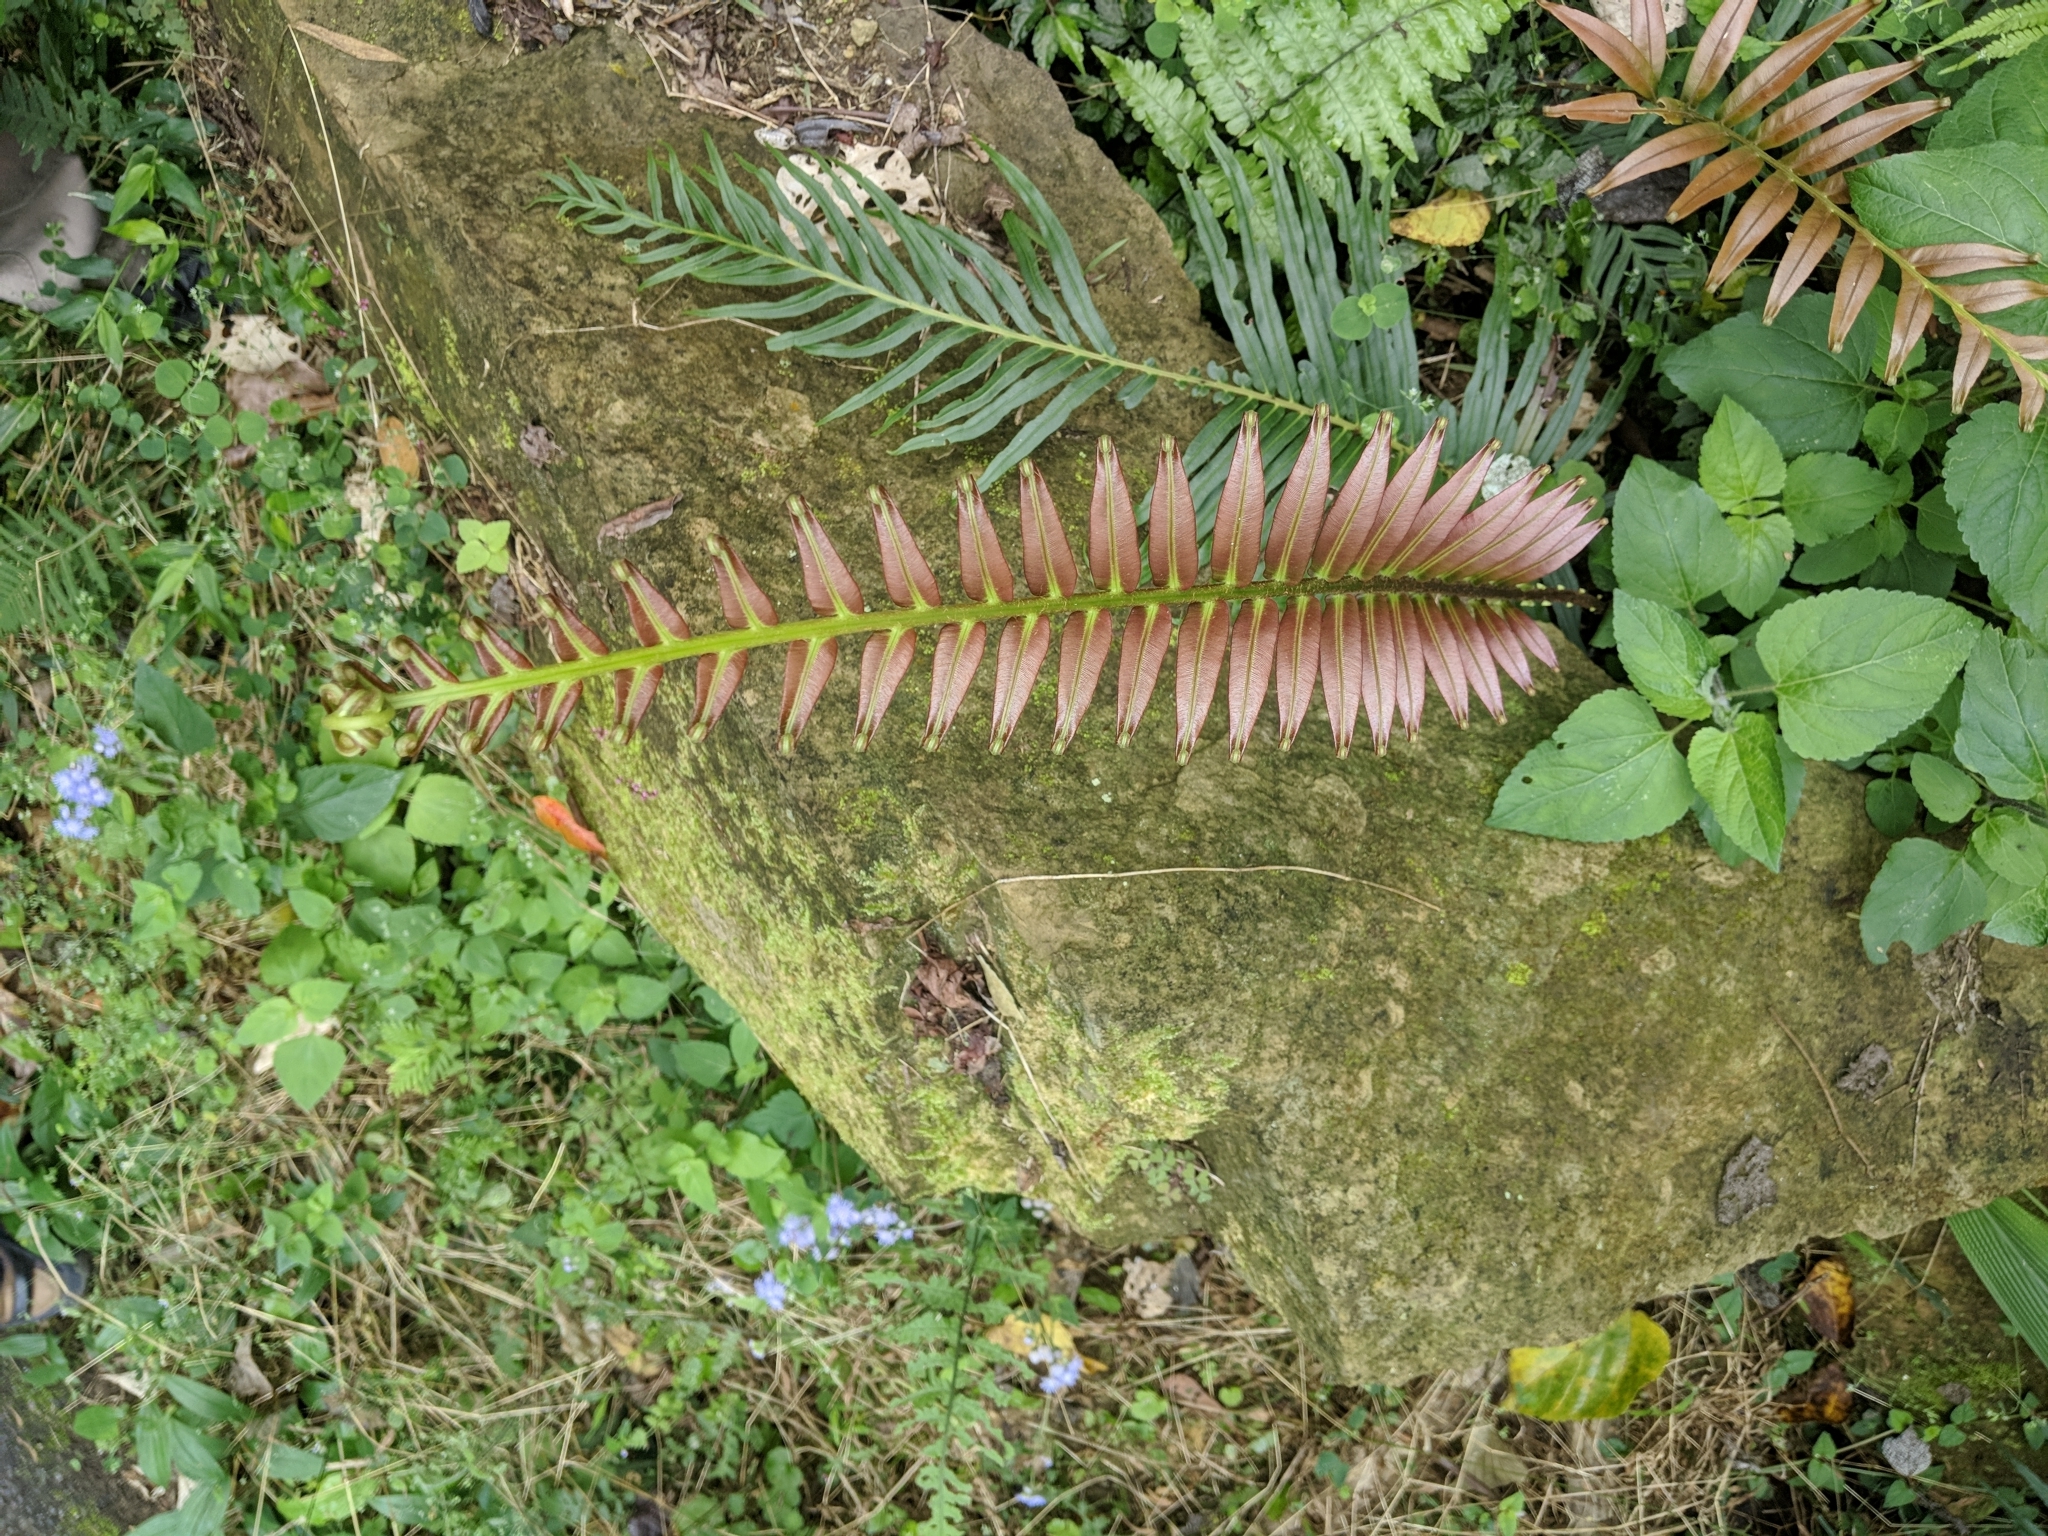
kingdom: Plantae
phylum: Tracheophyta
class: Polypodiopsida
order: Polypodiales
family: Blechnaceae
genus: Blechnopsis
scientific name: Blechnopsis orientalis
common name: Oriental blechnum
